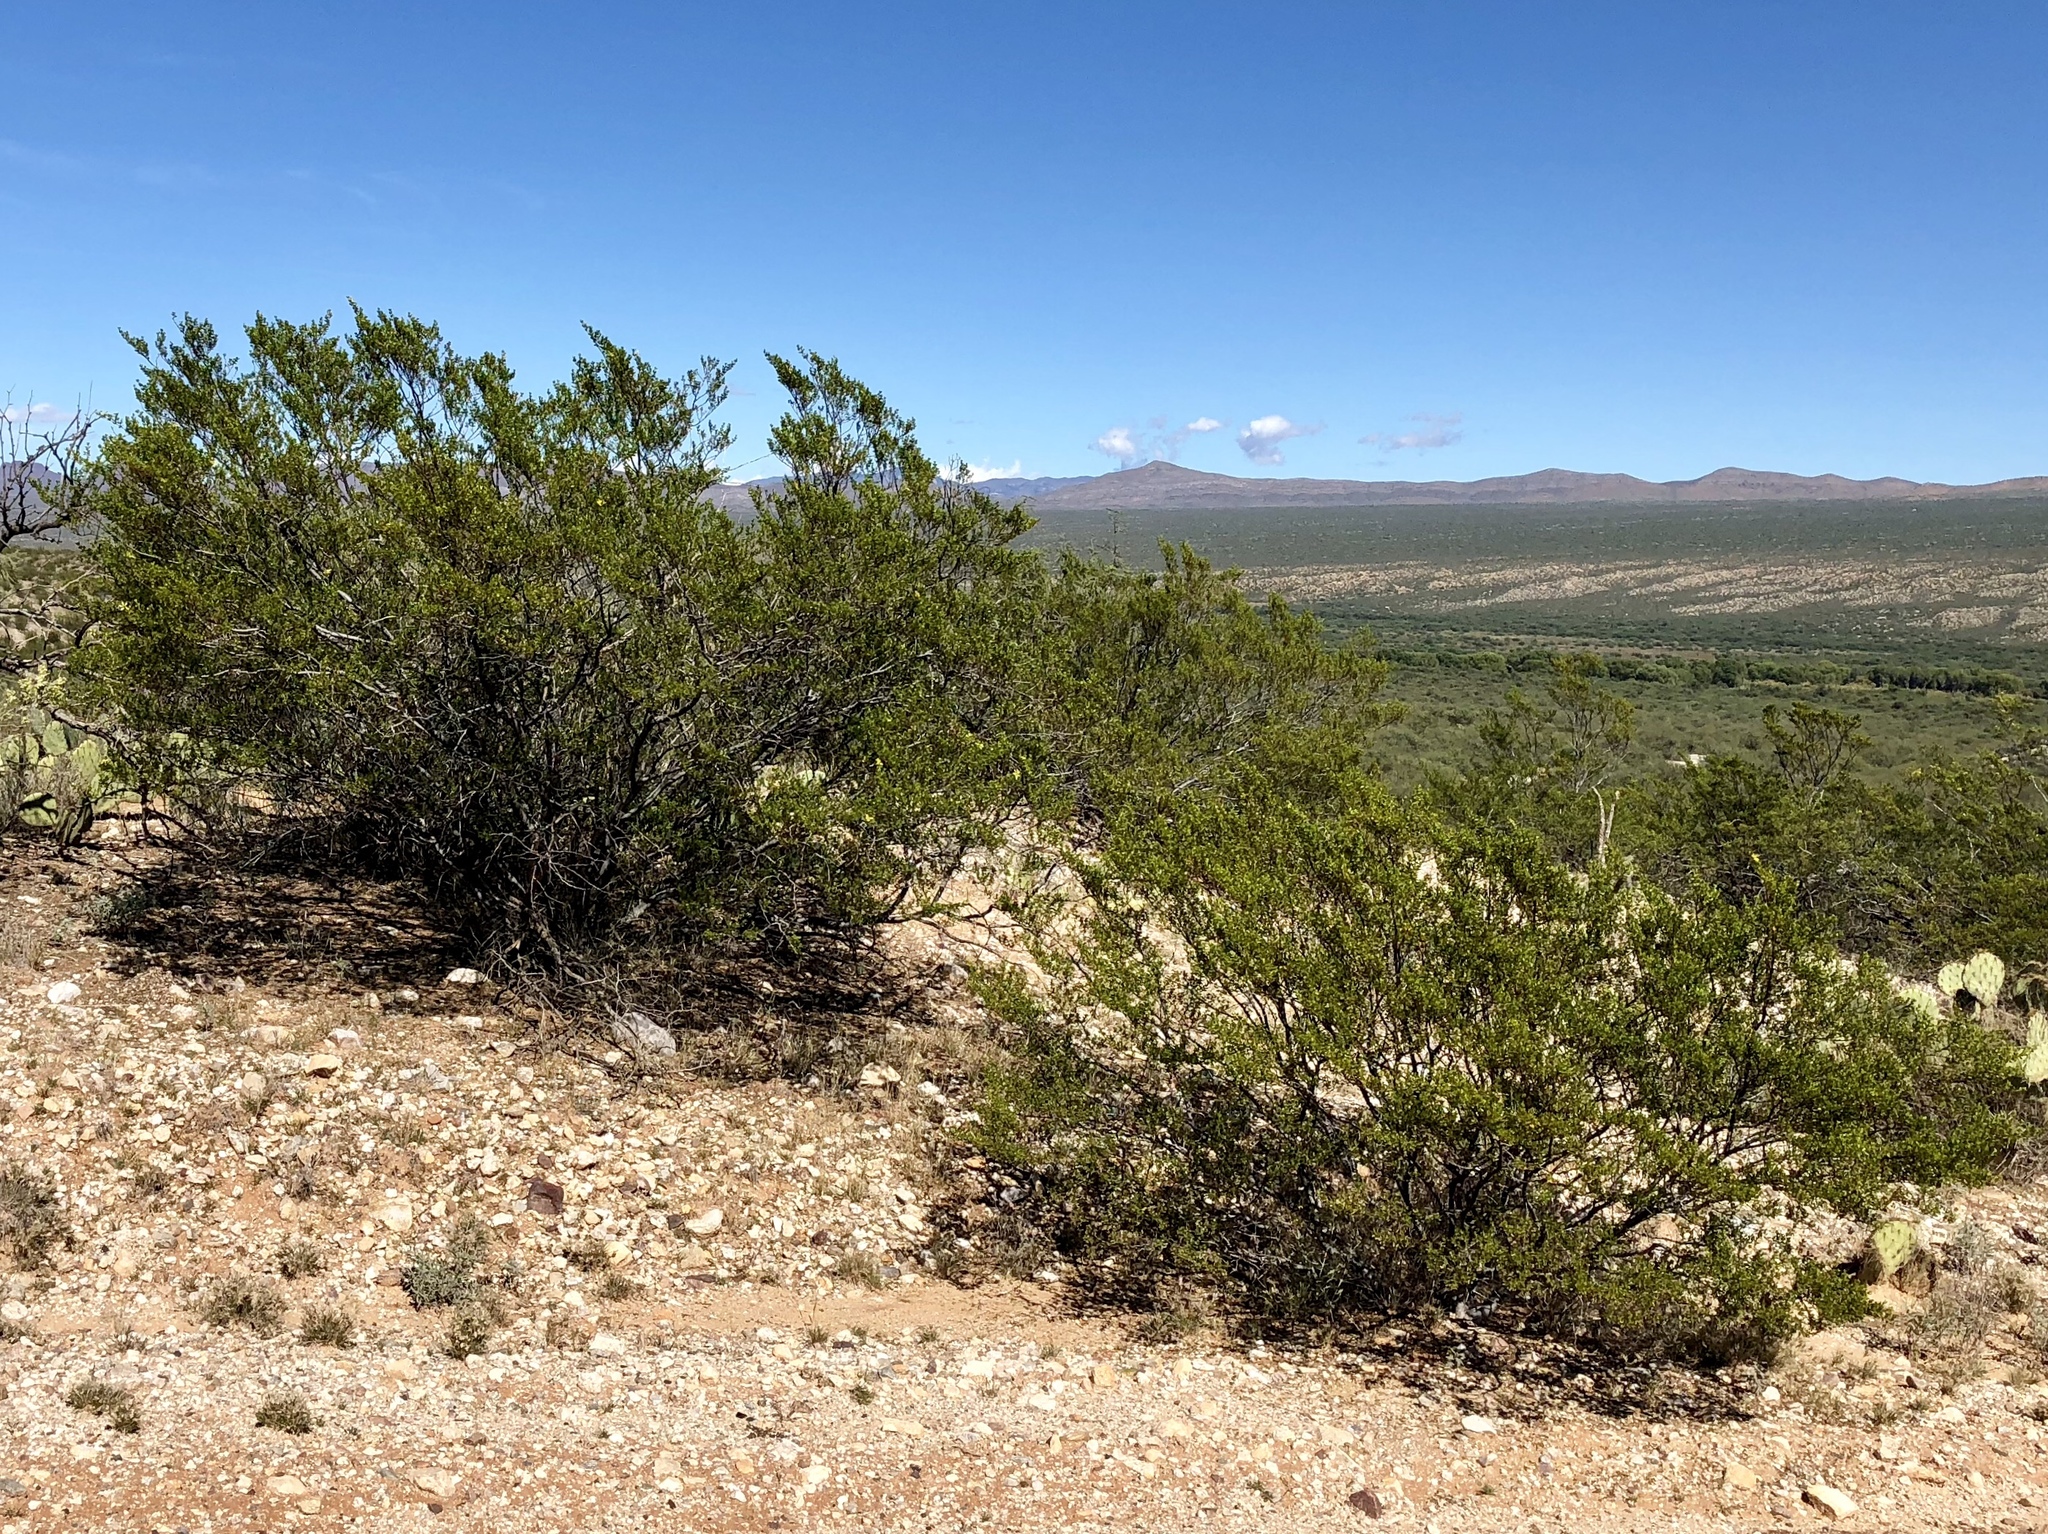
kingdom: Plantae
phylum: Tracheophyta
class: Magnoliopsida
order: Zygophyllales
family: Zygophyllaceae
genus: Larrea
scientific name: Larrea tridentata
